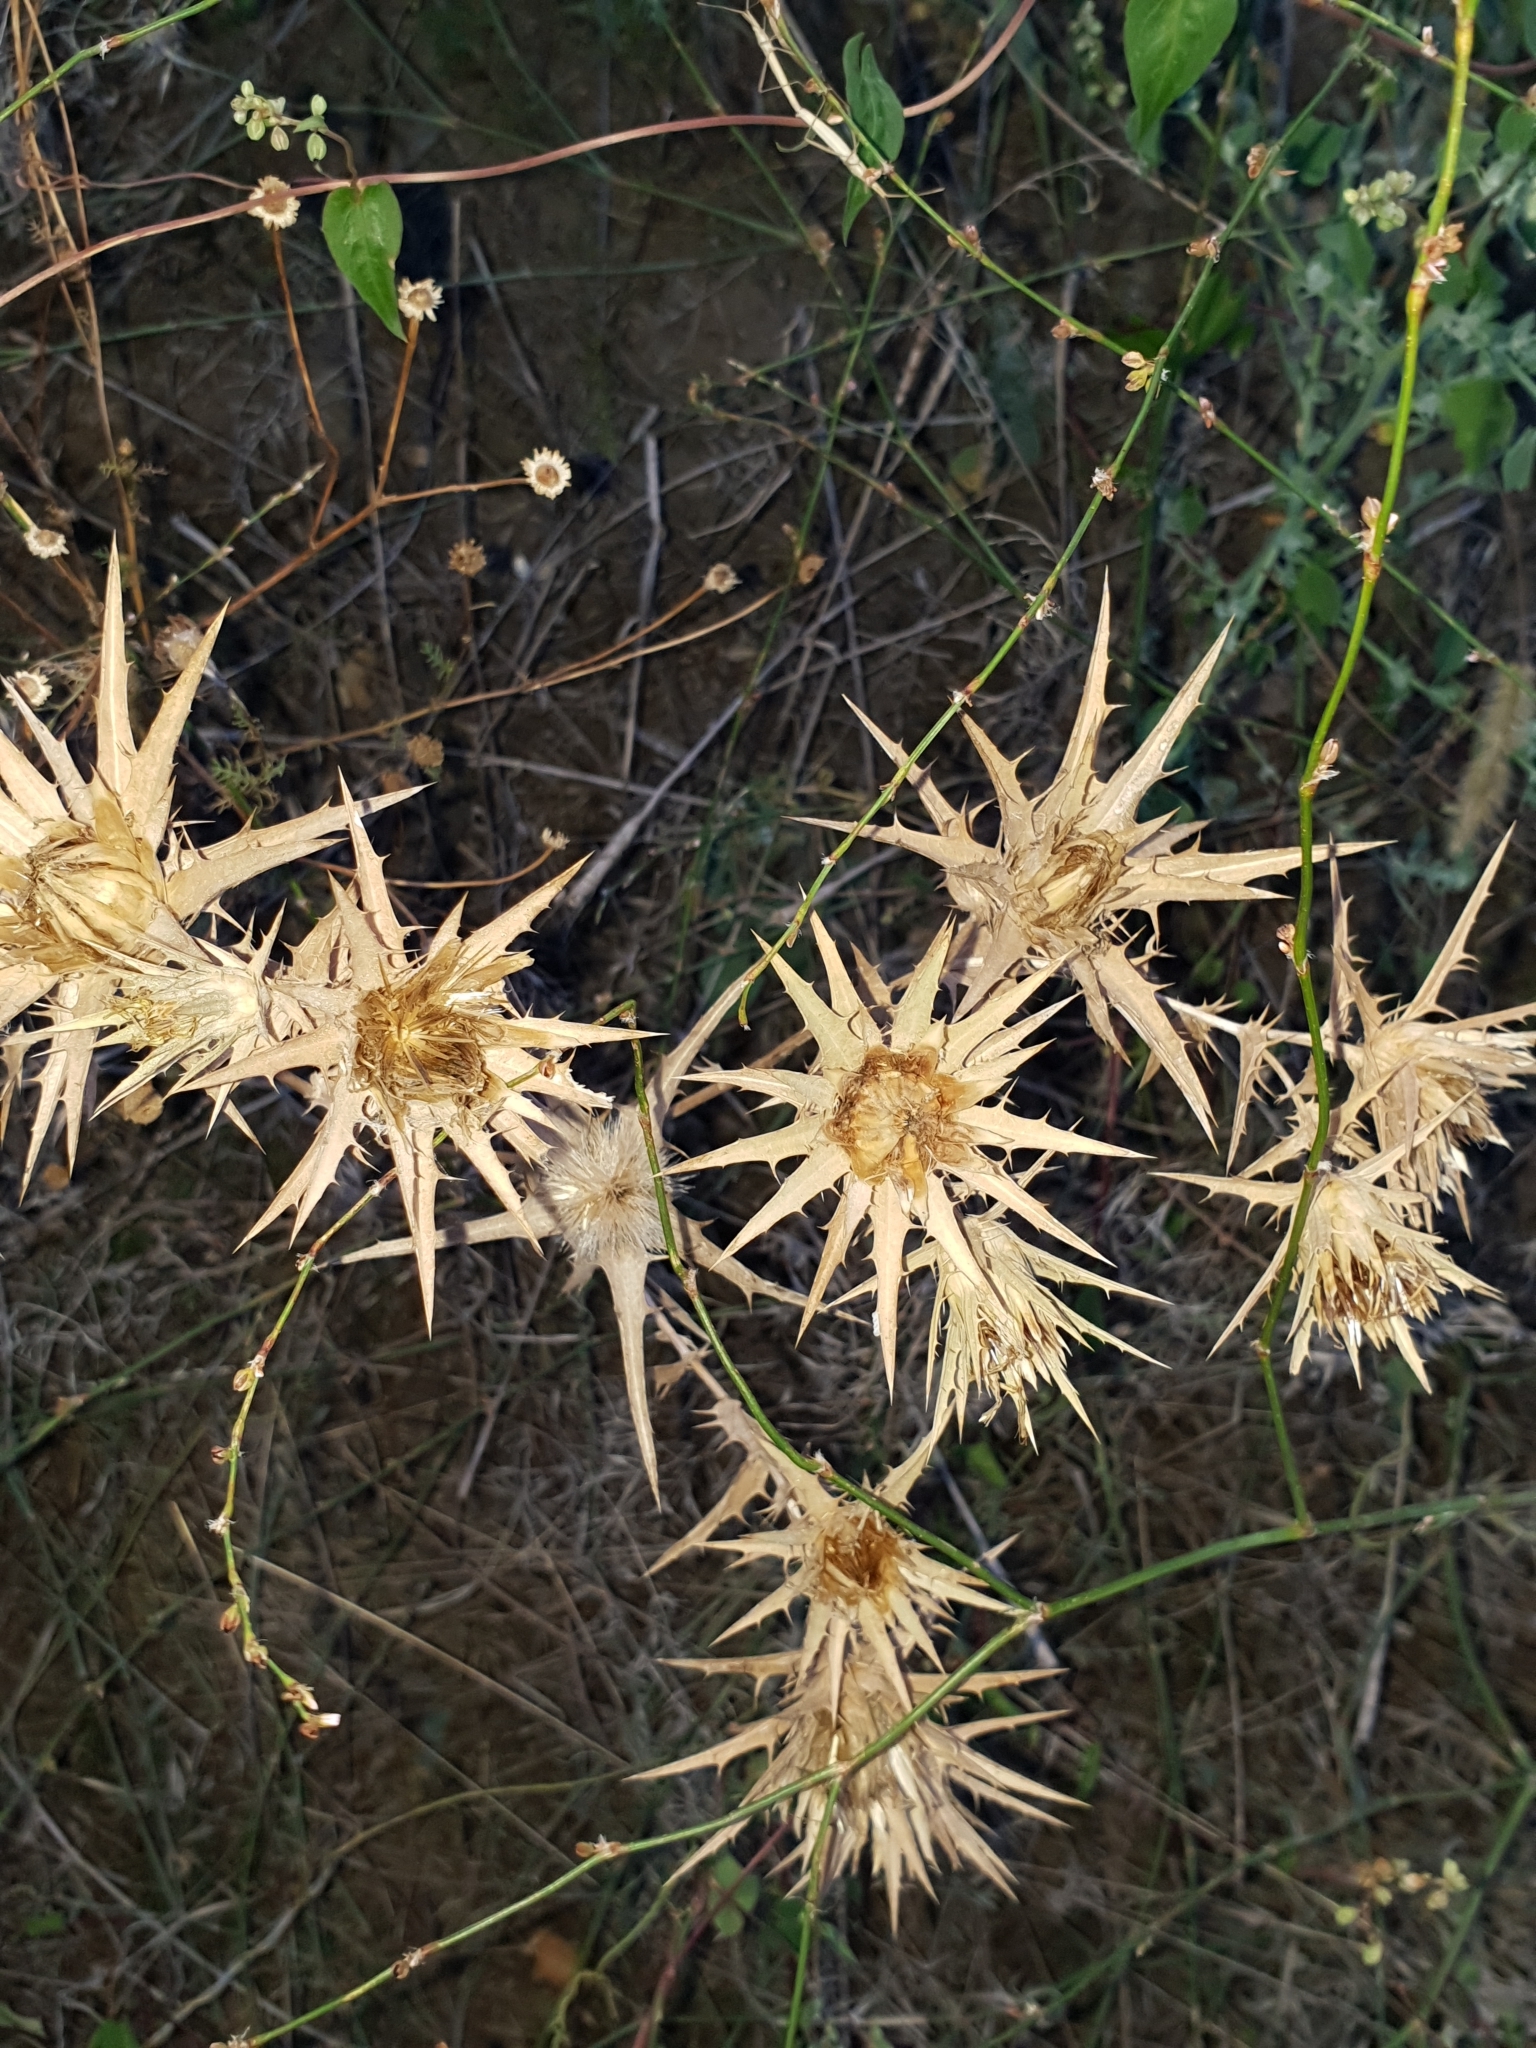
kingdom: Plantae
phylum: Tracheophyta
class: Magnoliopsida
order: Asterales
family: Asteraceae
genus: Carthamus
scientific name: Carthamus lanatus
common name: Downy safflower
